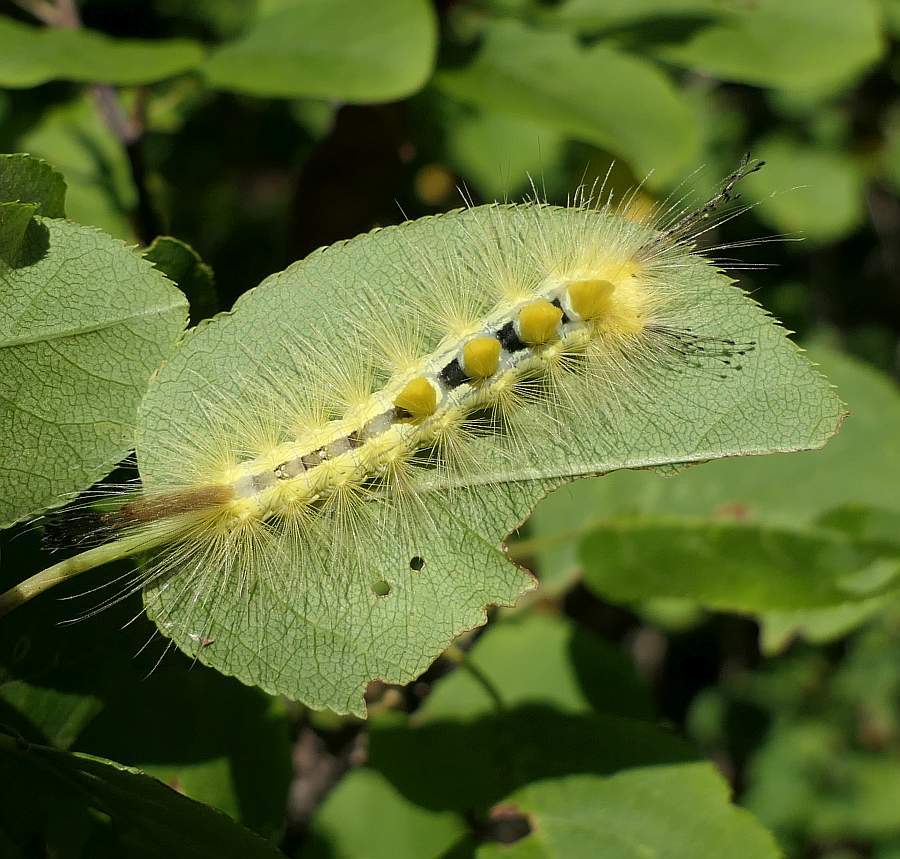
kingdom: Animalia
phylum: Arthropoda
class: Insecta
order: Lepidoptera
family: Erebidae
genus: Orgyia
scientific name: Orgyia definita
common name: Definite tussock moth
